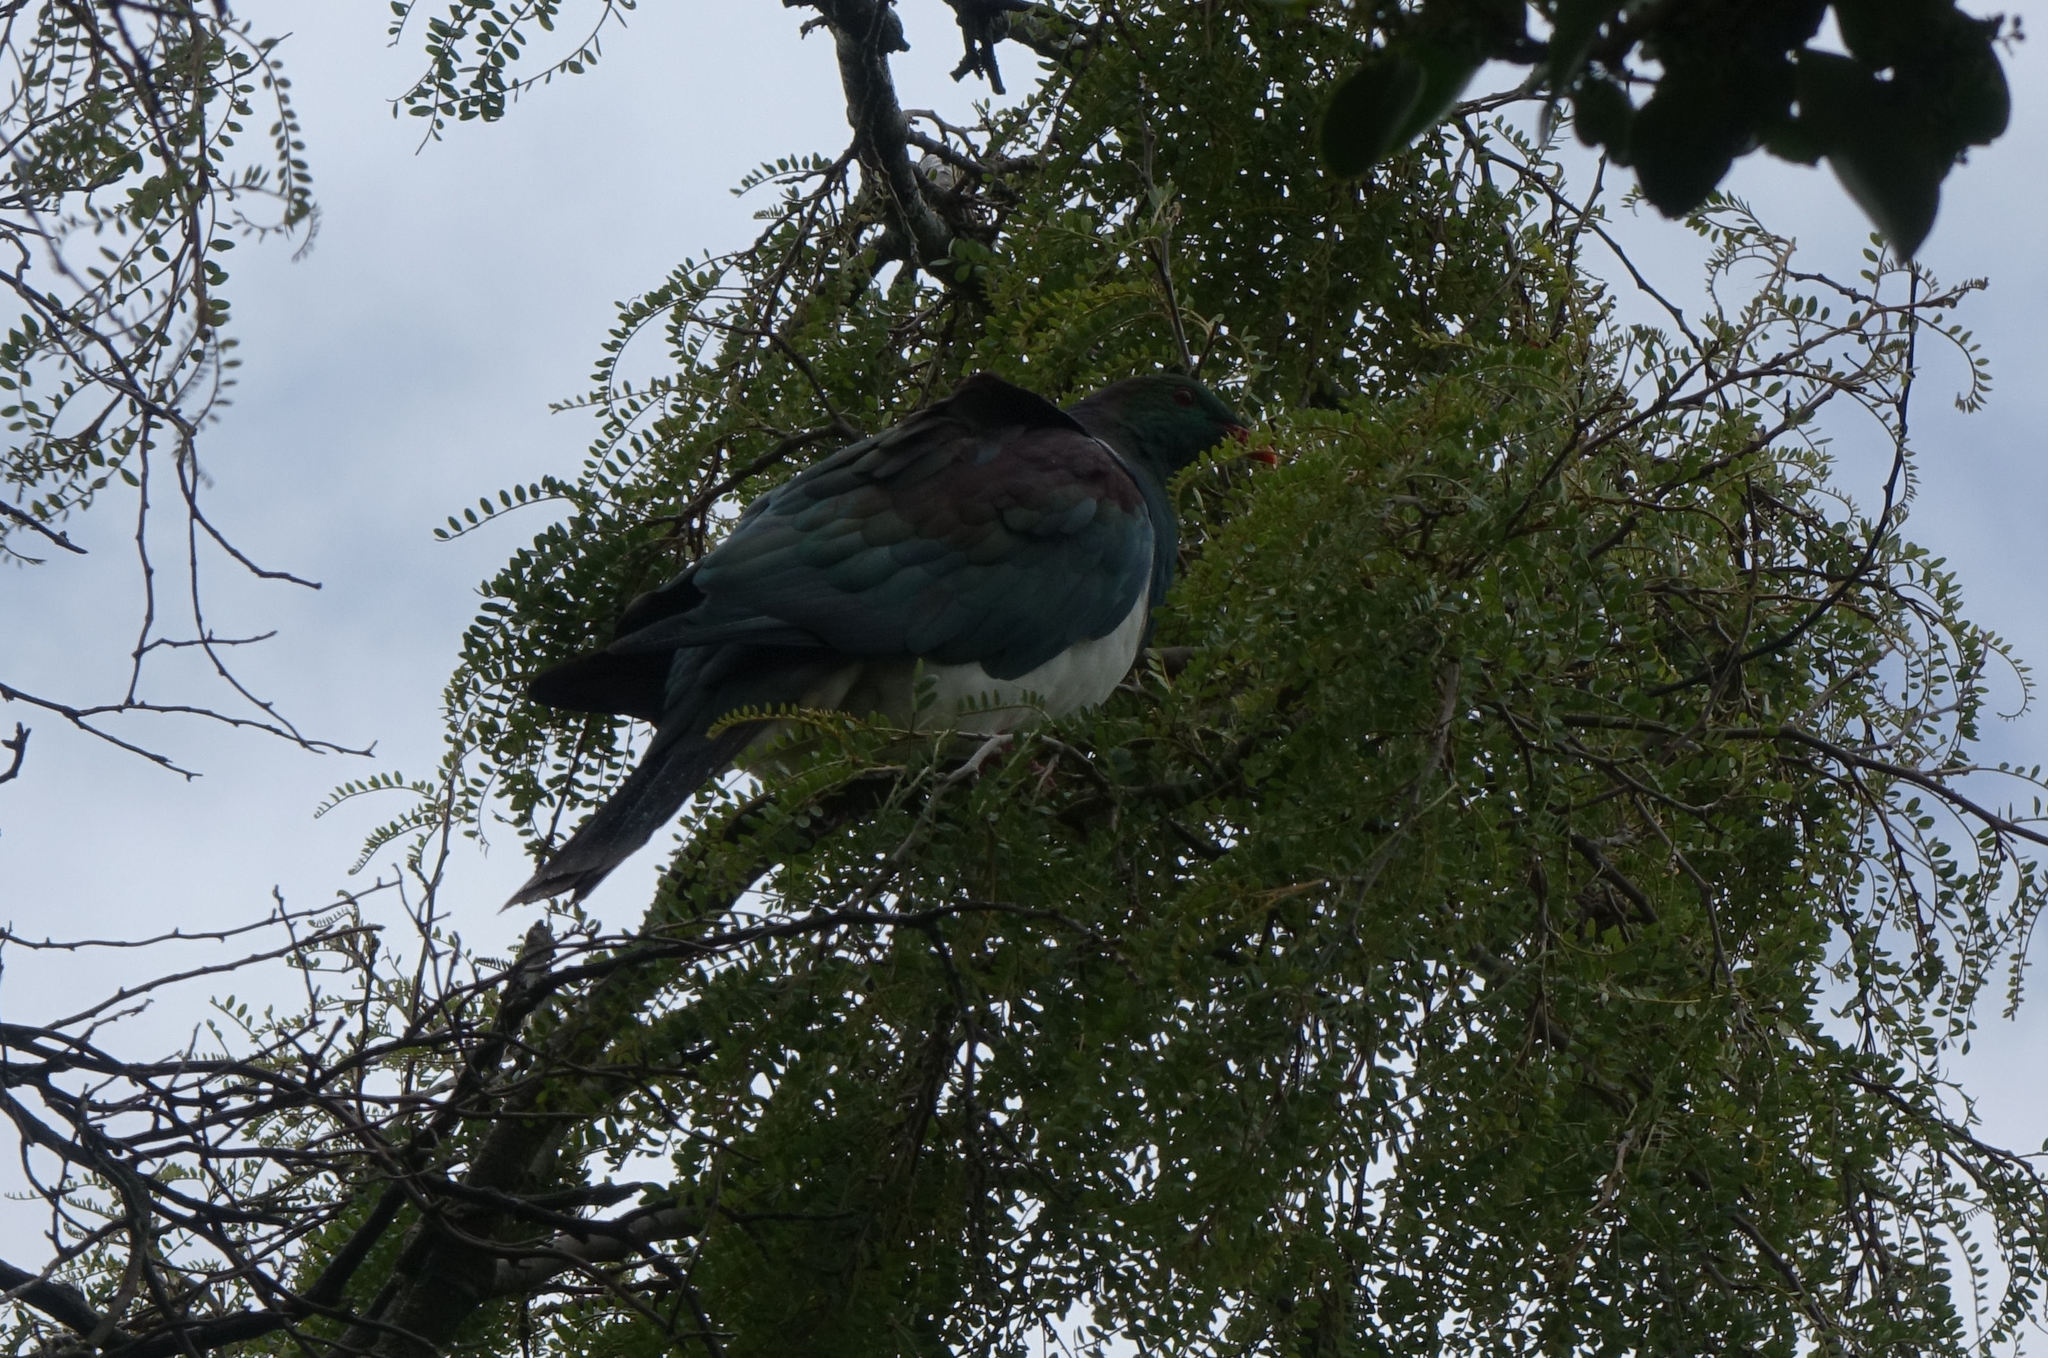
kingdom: Animalia
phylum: Chordata
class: Aves
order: Columbiformes
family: Columbidae
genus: Hemiphaga
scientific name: Hemiphaga novaeseelandiae
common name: New zealand pigeon
